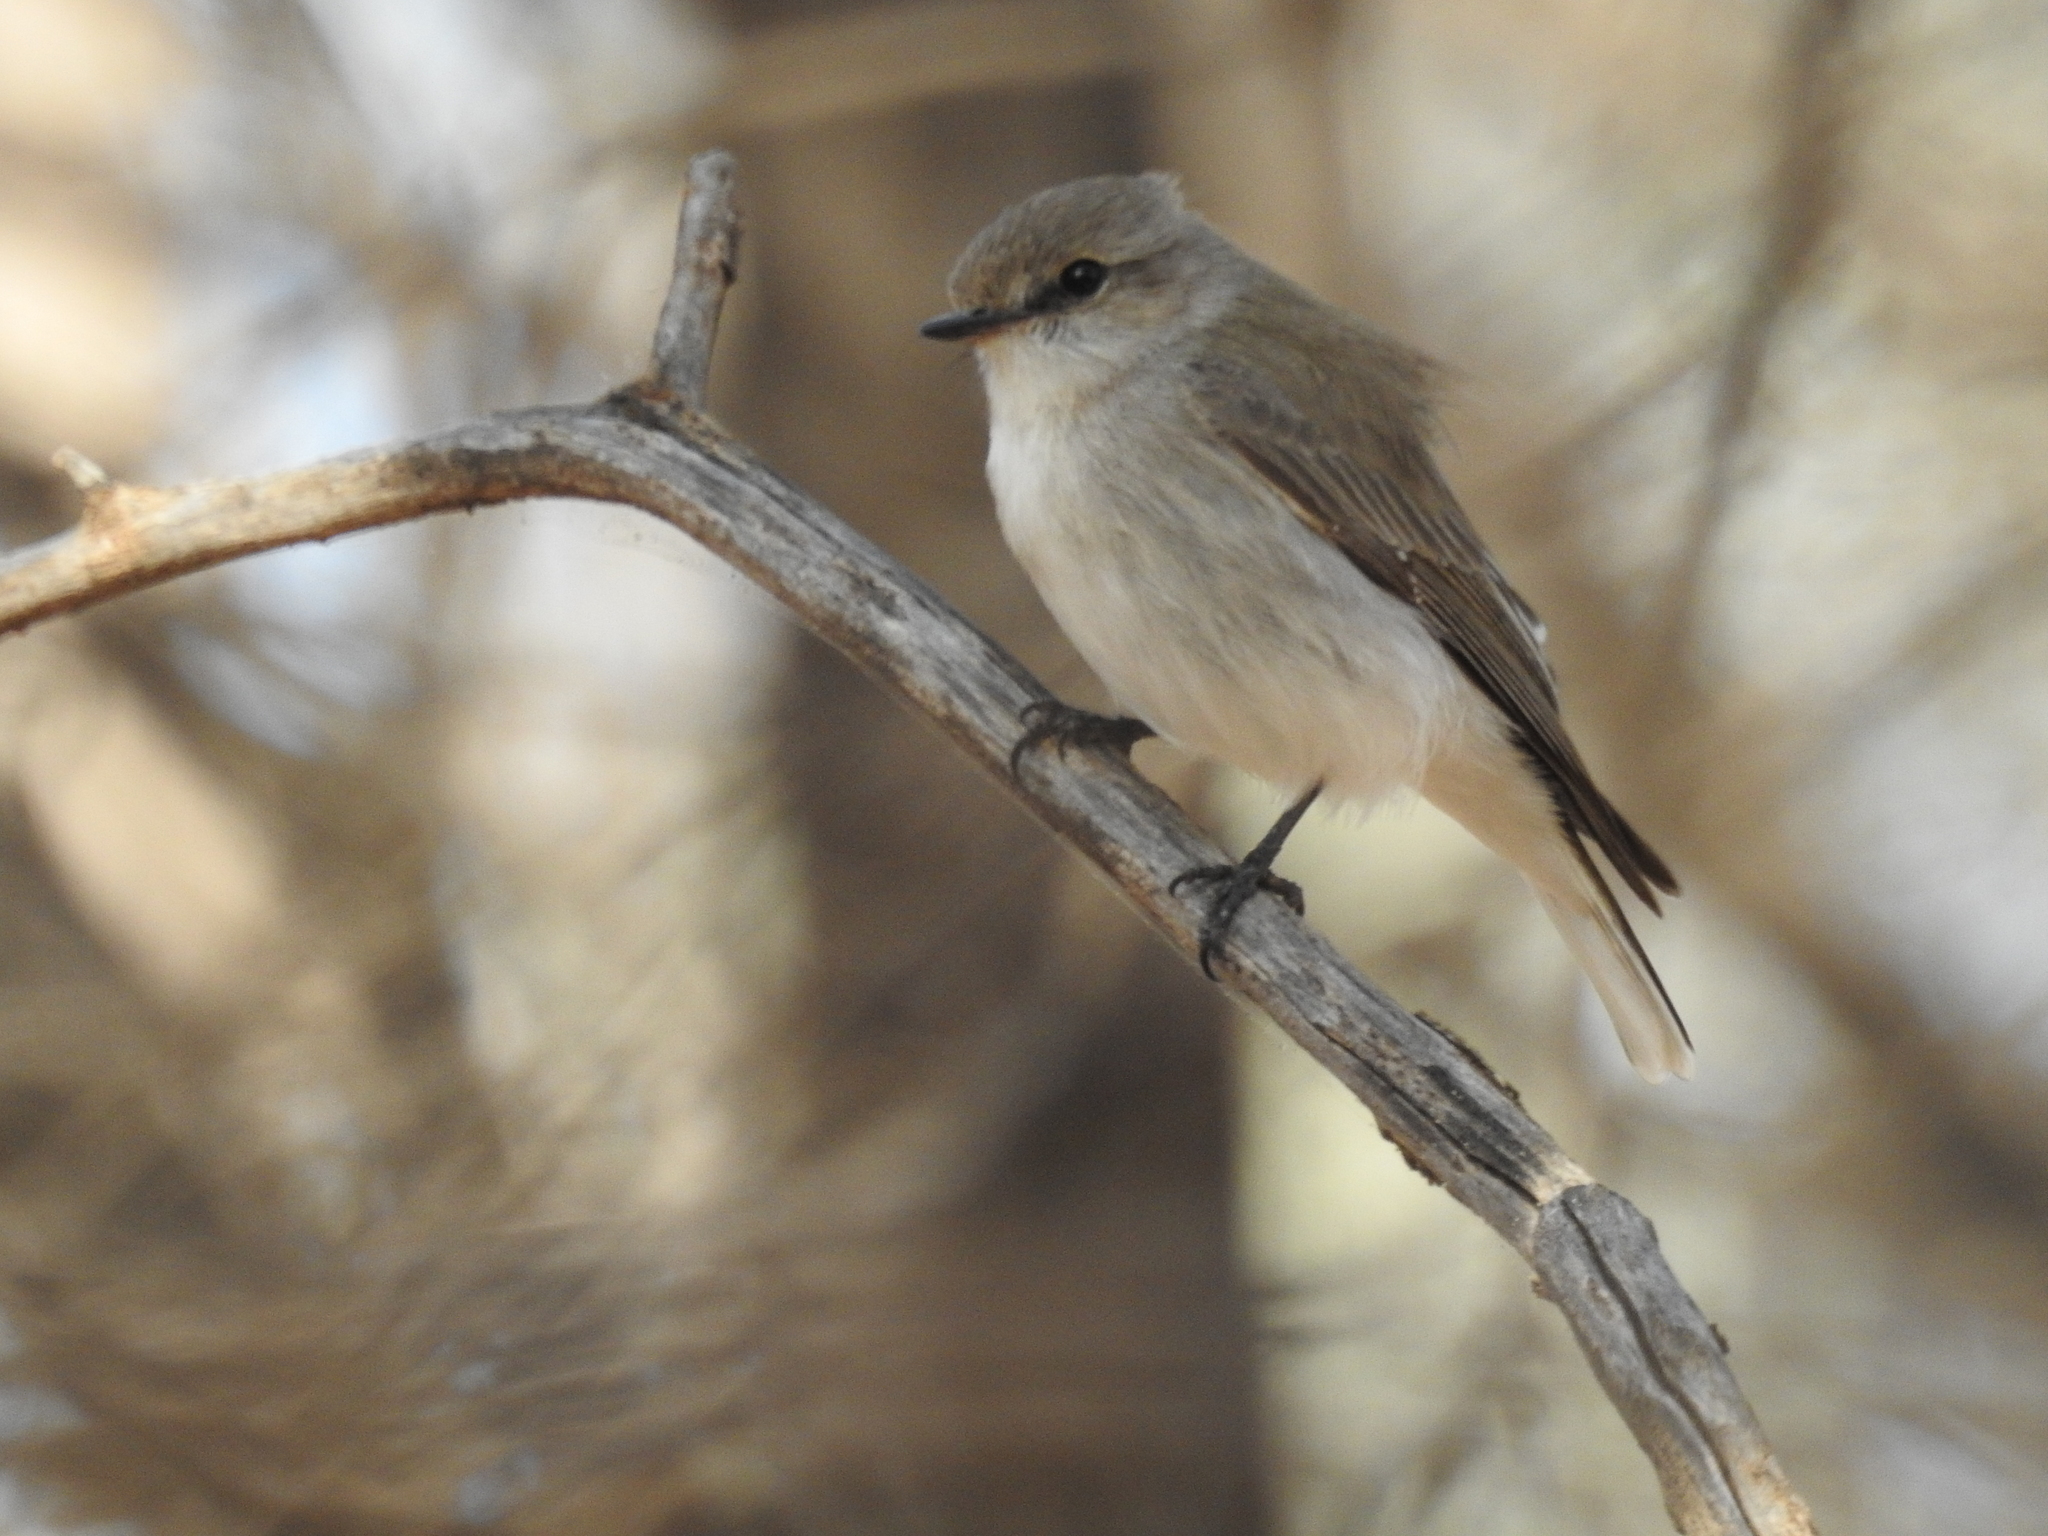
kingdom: Animalia
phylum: Chordata
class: Aves
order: Passeriformes
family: Petroicidae
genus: Microeca
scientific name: Microeca fascinans
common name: Jacky winter
